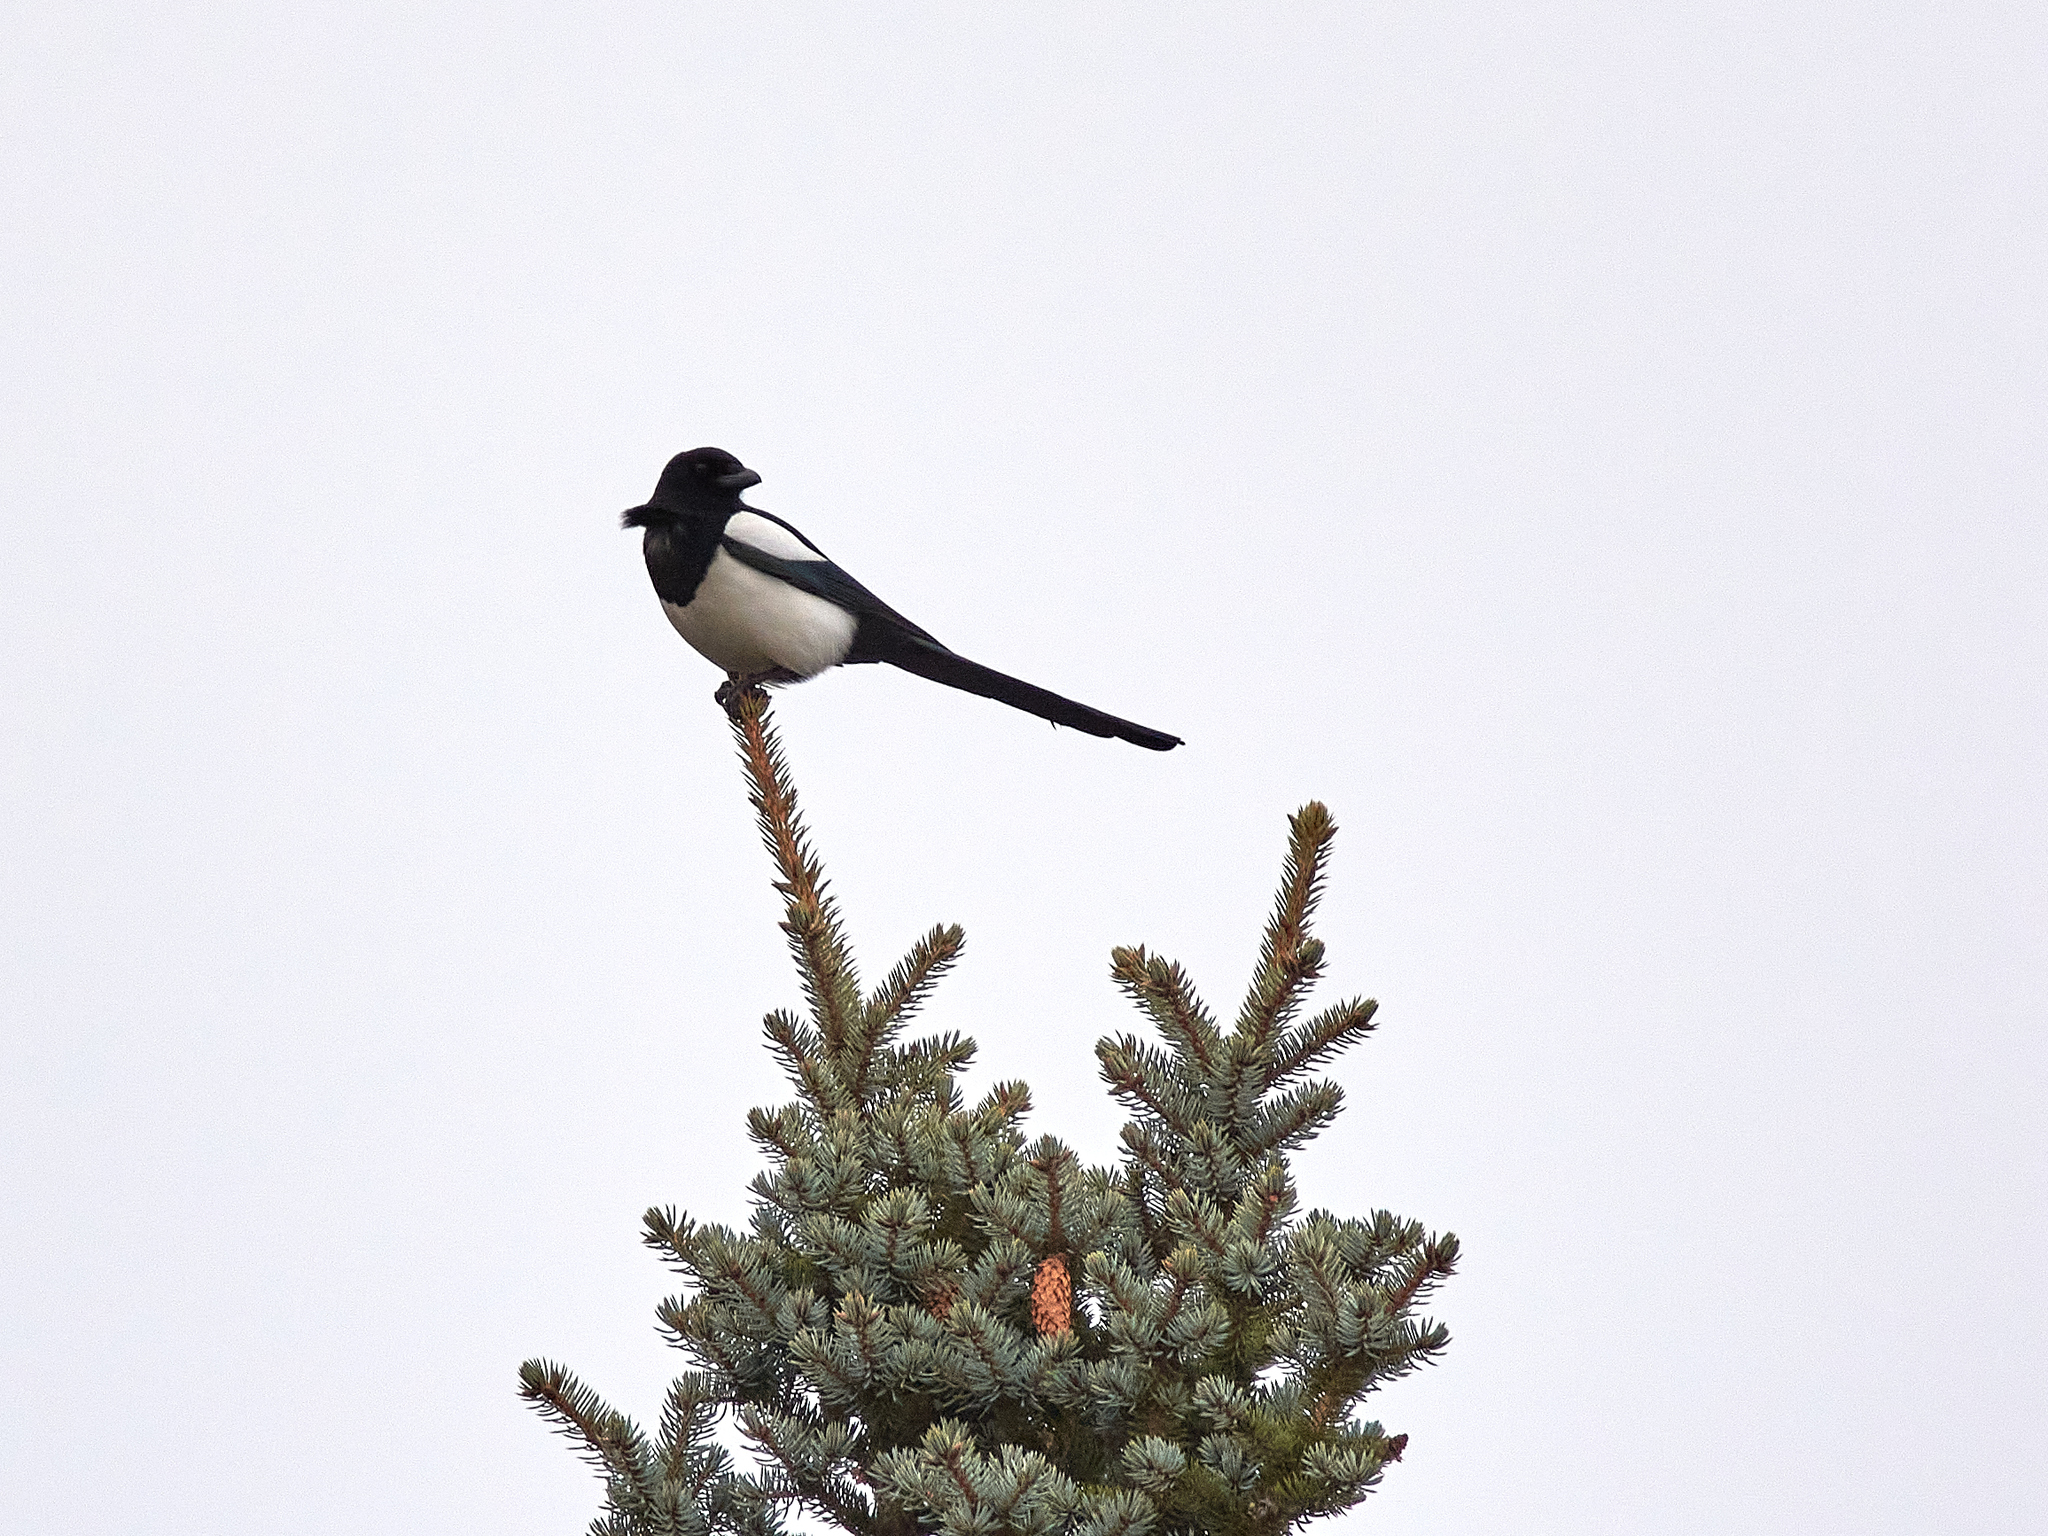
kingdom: Animalia
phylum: Chordata
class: Aves
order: Passeriformes
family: Corvidae
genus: Pica
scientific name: Pica pica
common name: Eurasian magpie
